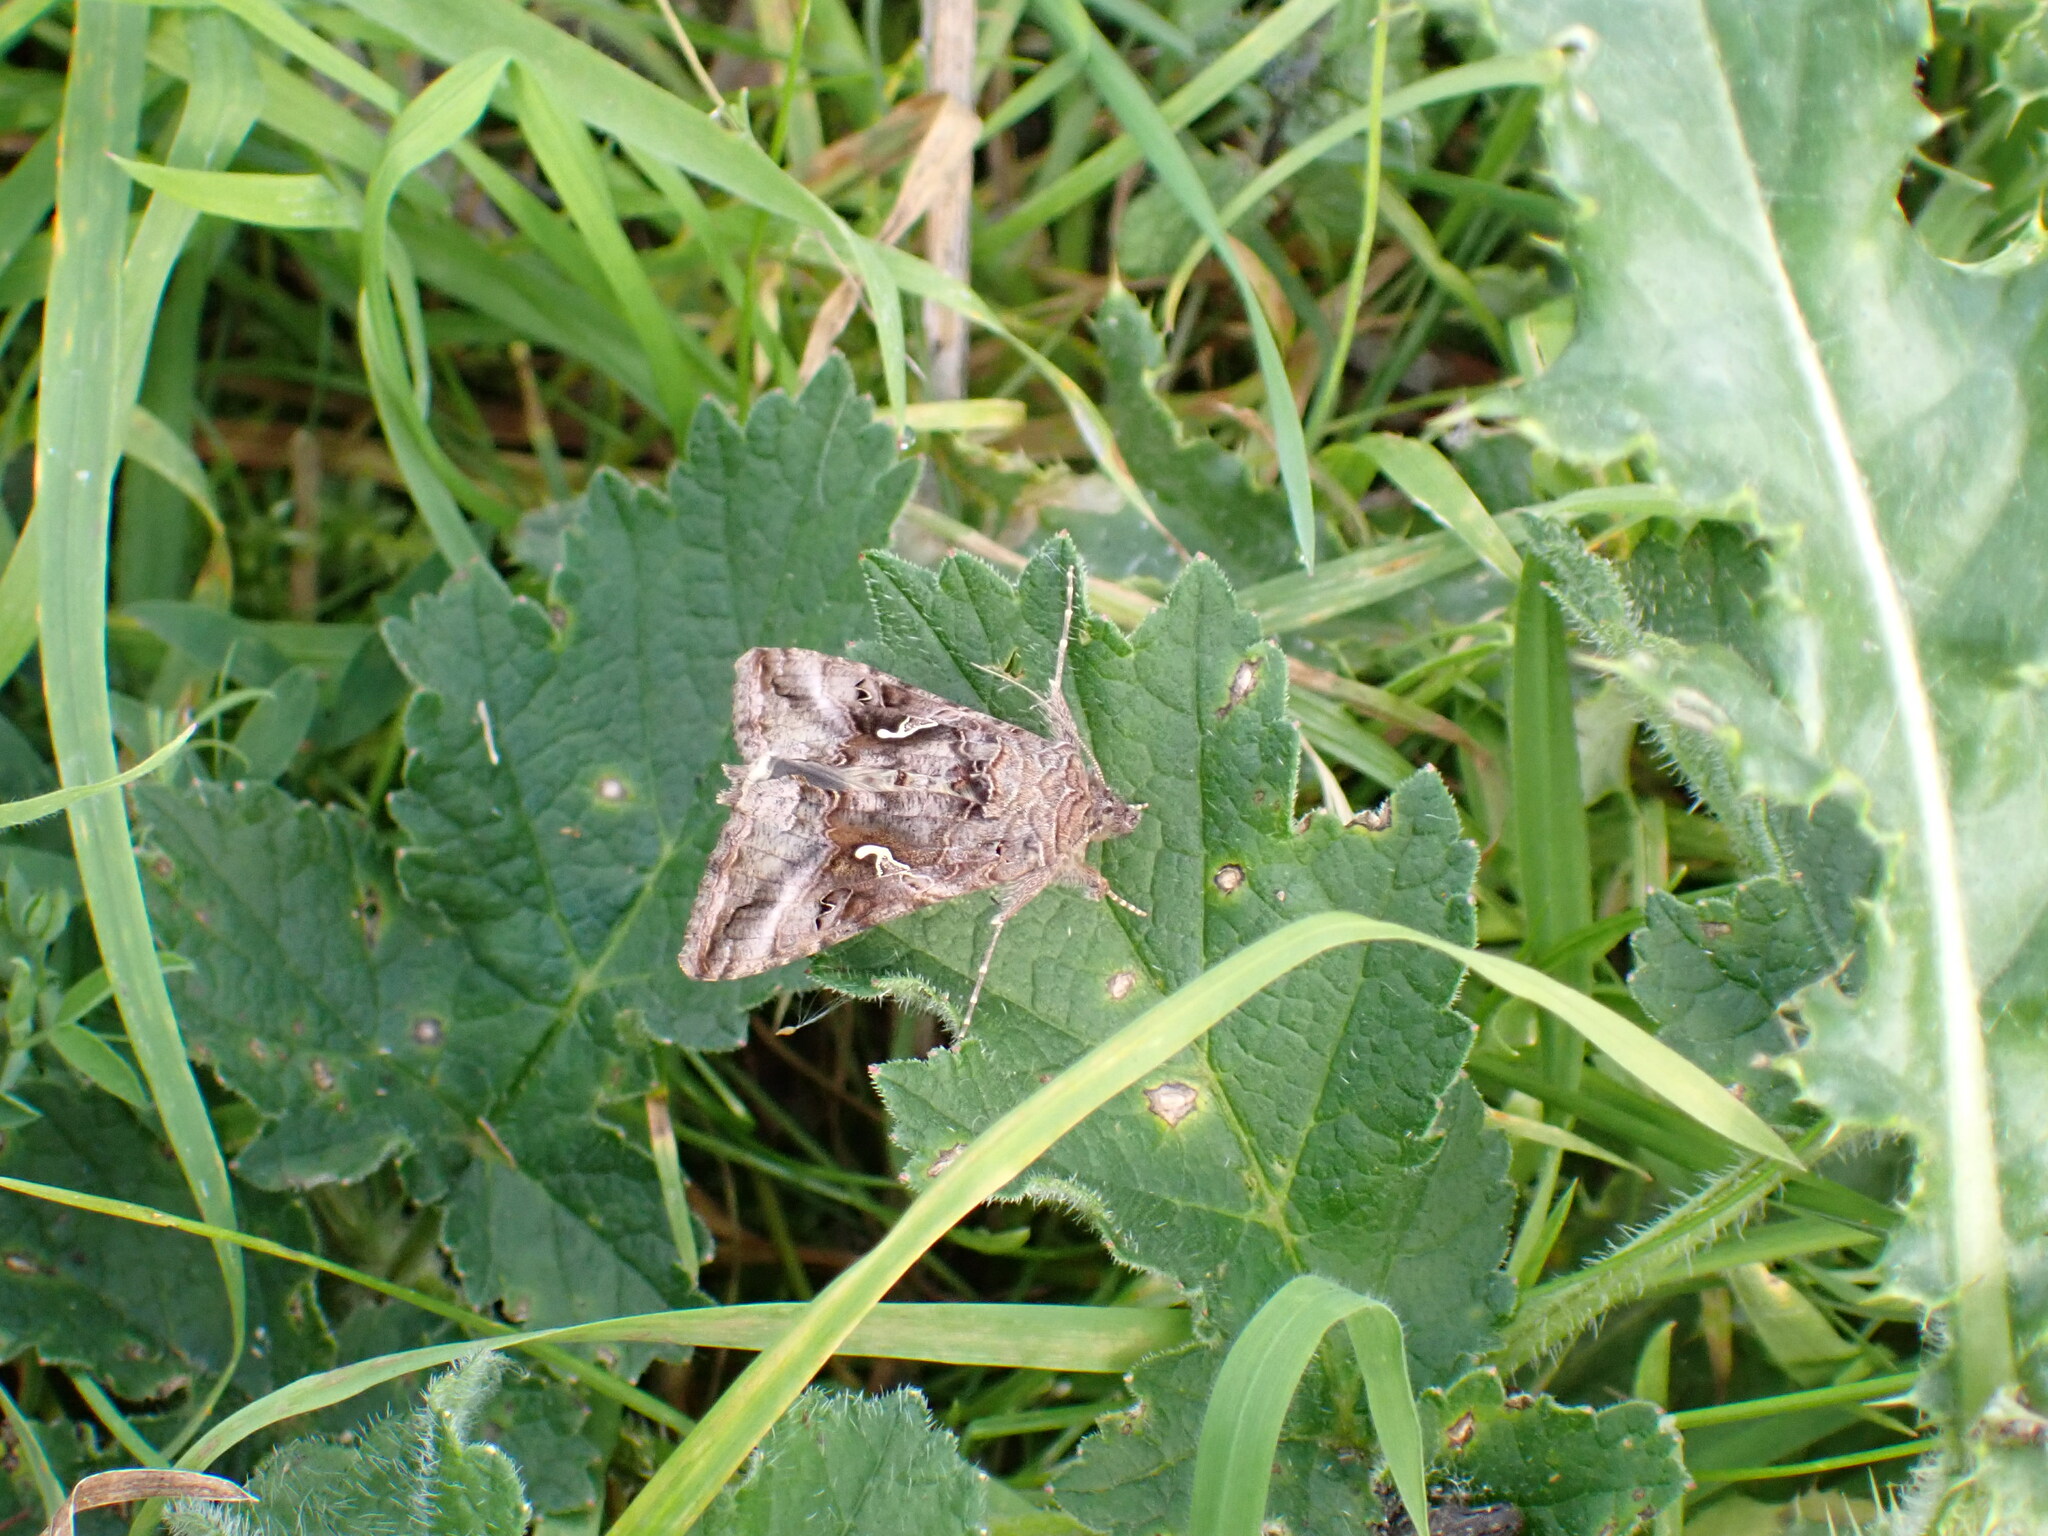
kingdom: Animalia
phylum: Arthropoda
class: Insecta
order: Lepidoptera
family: Noctuidae
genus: Autographa
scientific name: Autographa gamma
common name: Silver y
